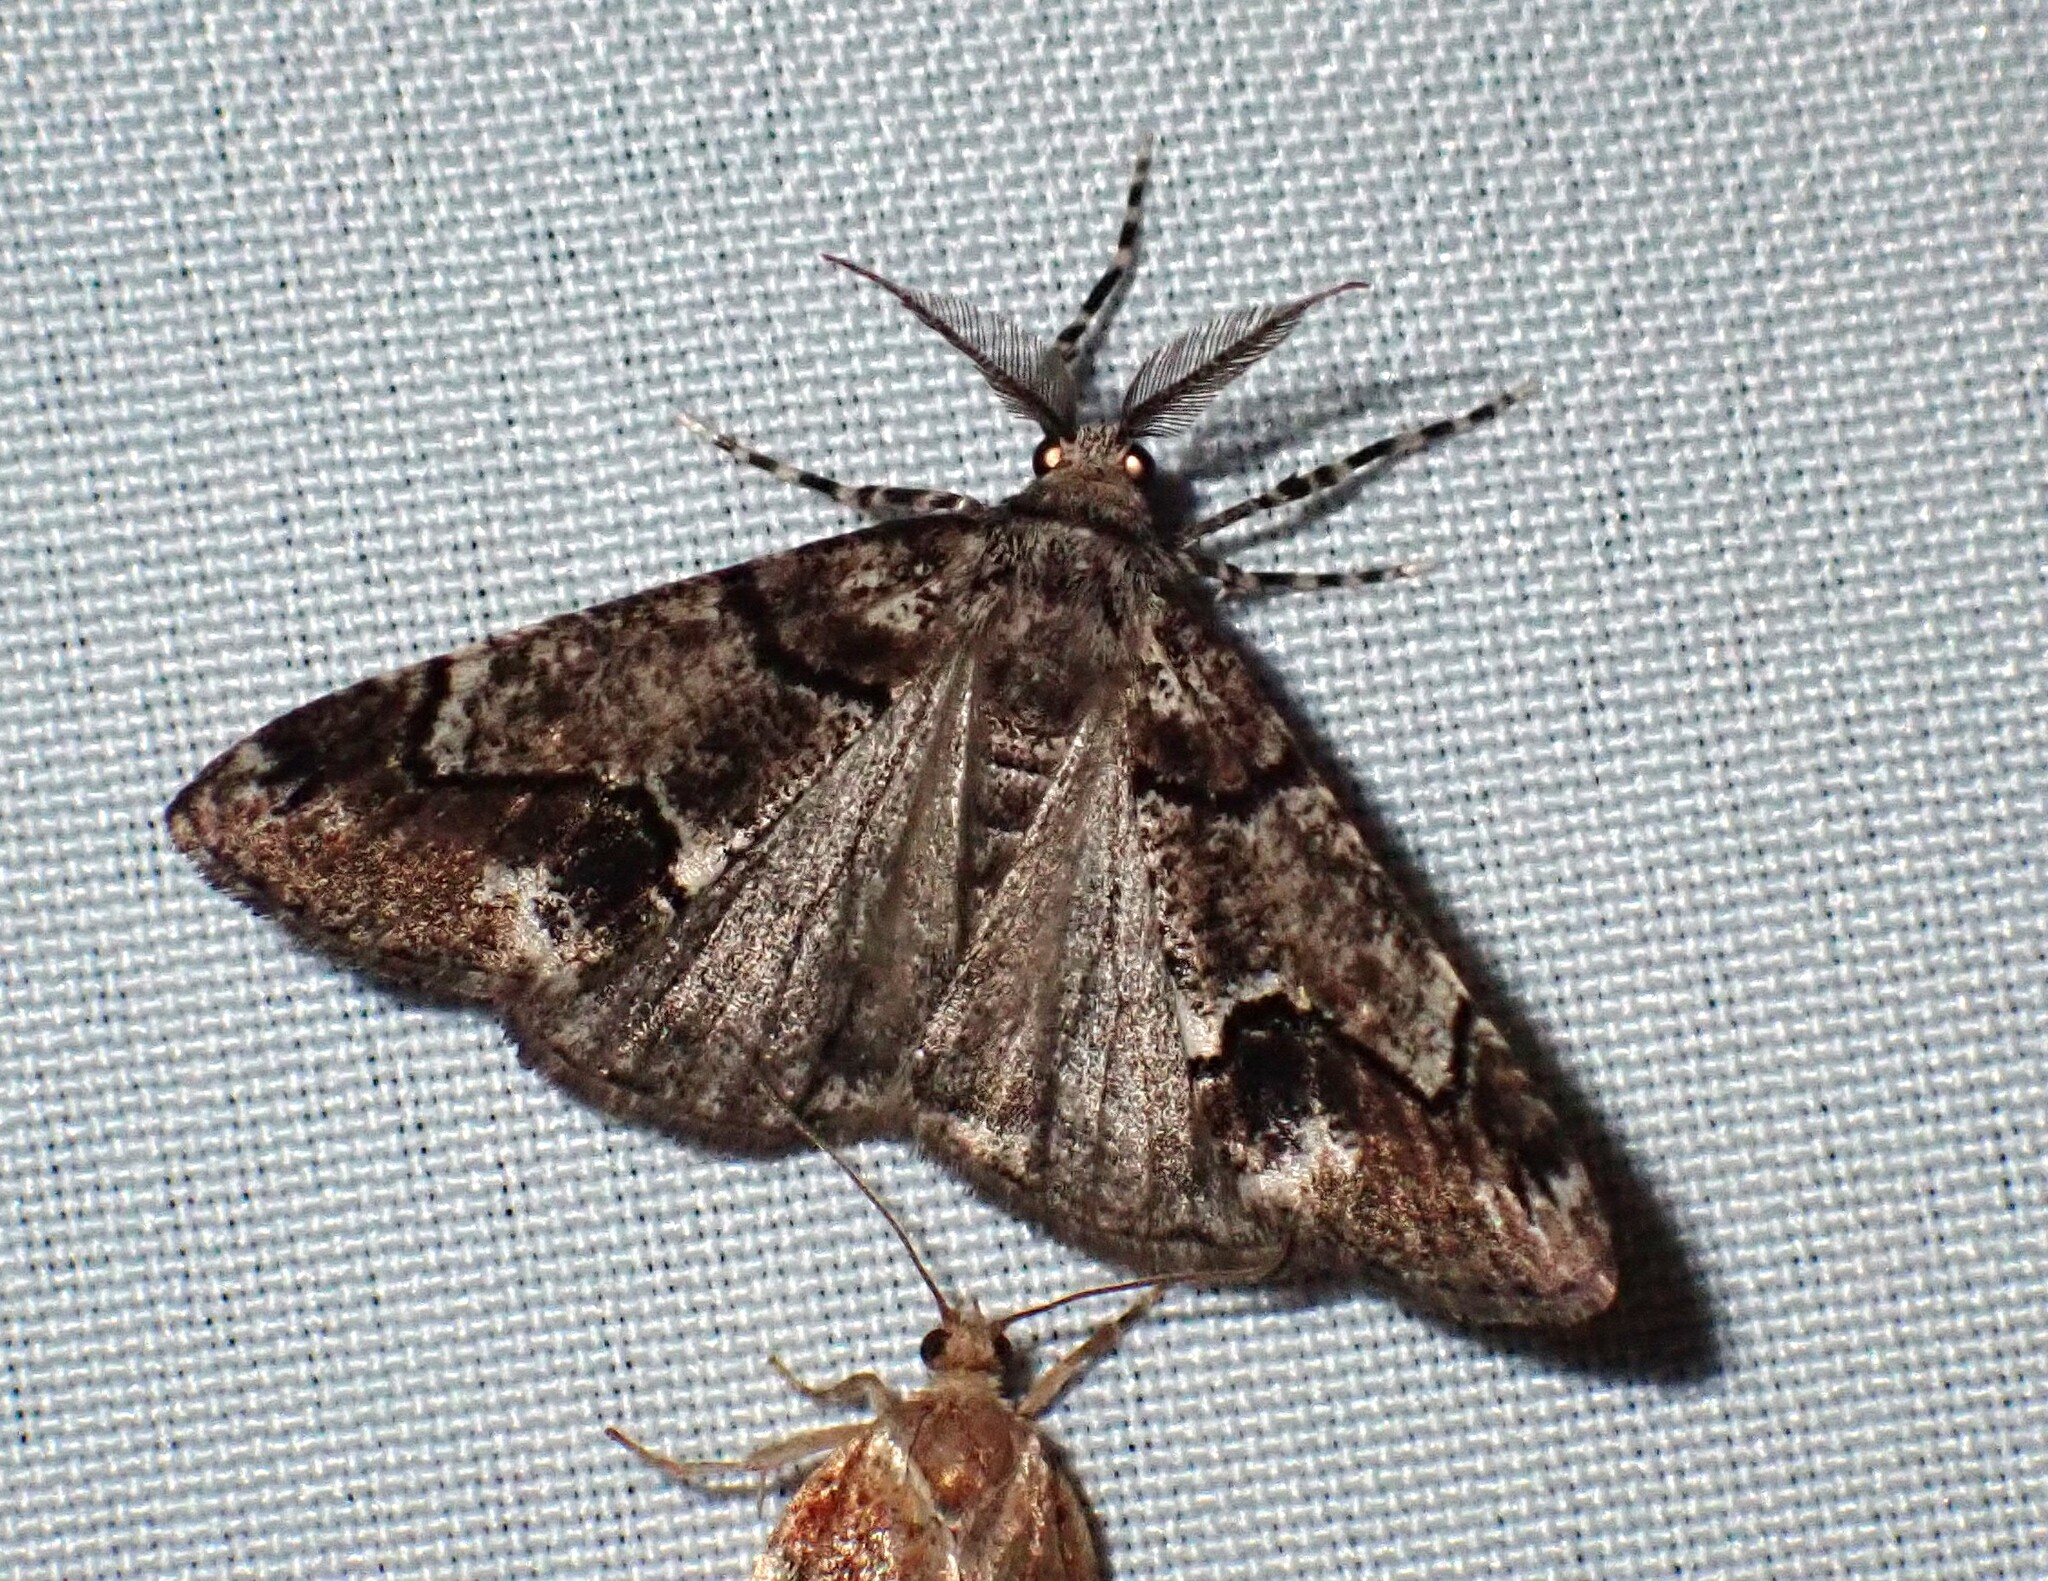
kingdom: Animalia
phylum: Arthropoda
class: Insecta
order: Lepidoptera
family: Geometridae
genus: Gabriola
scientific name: Gabriola dyari
